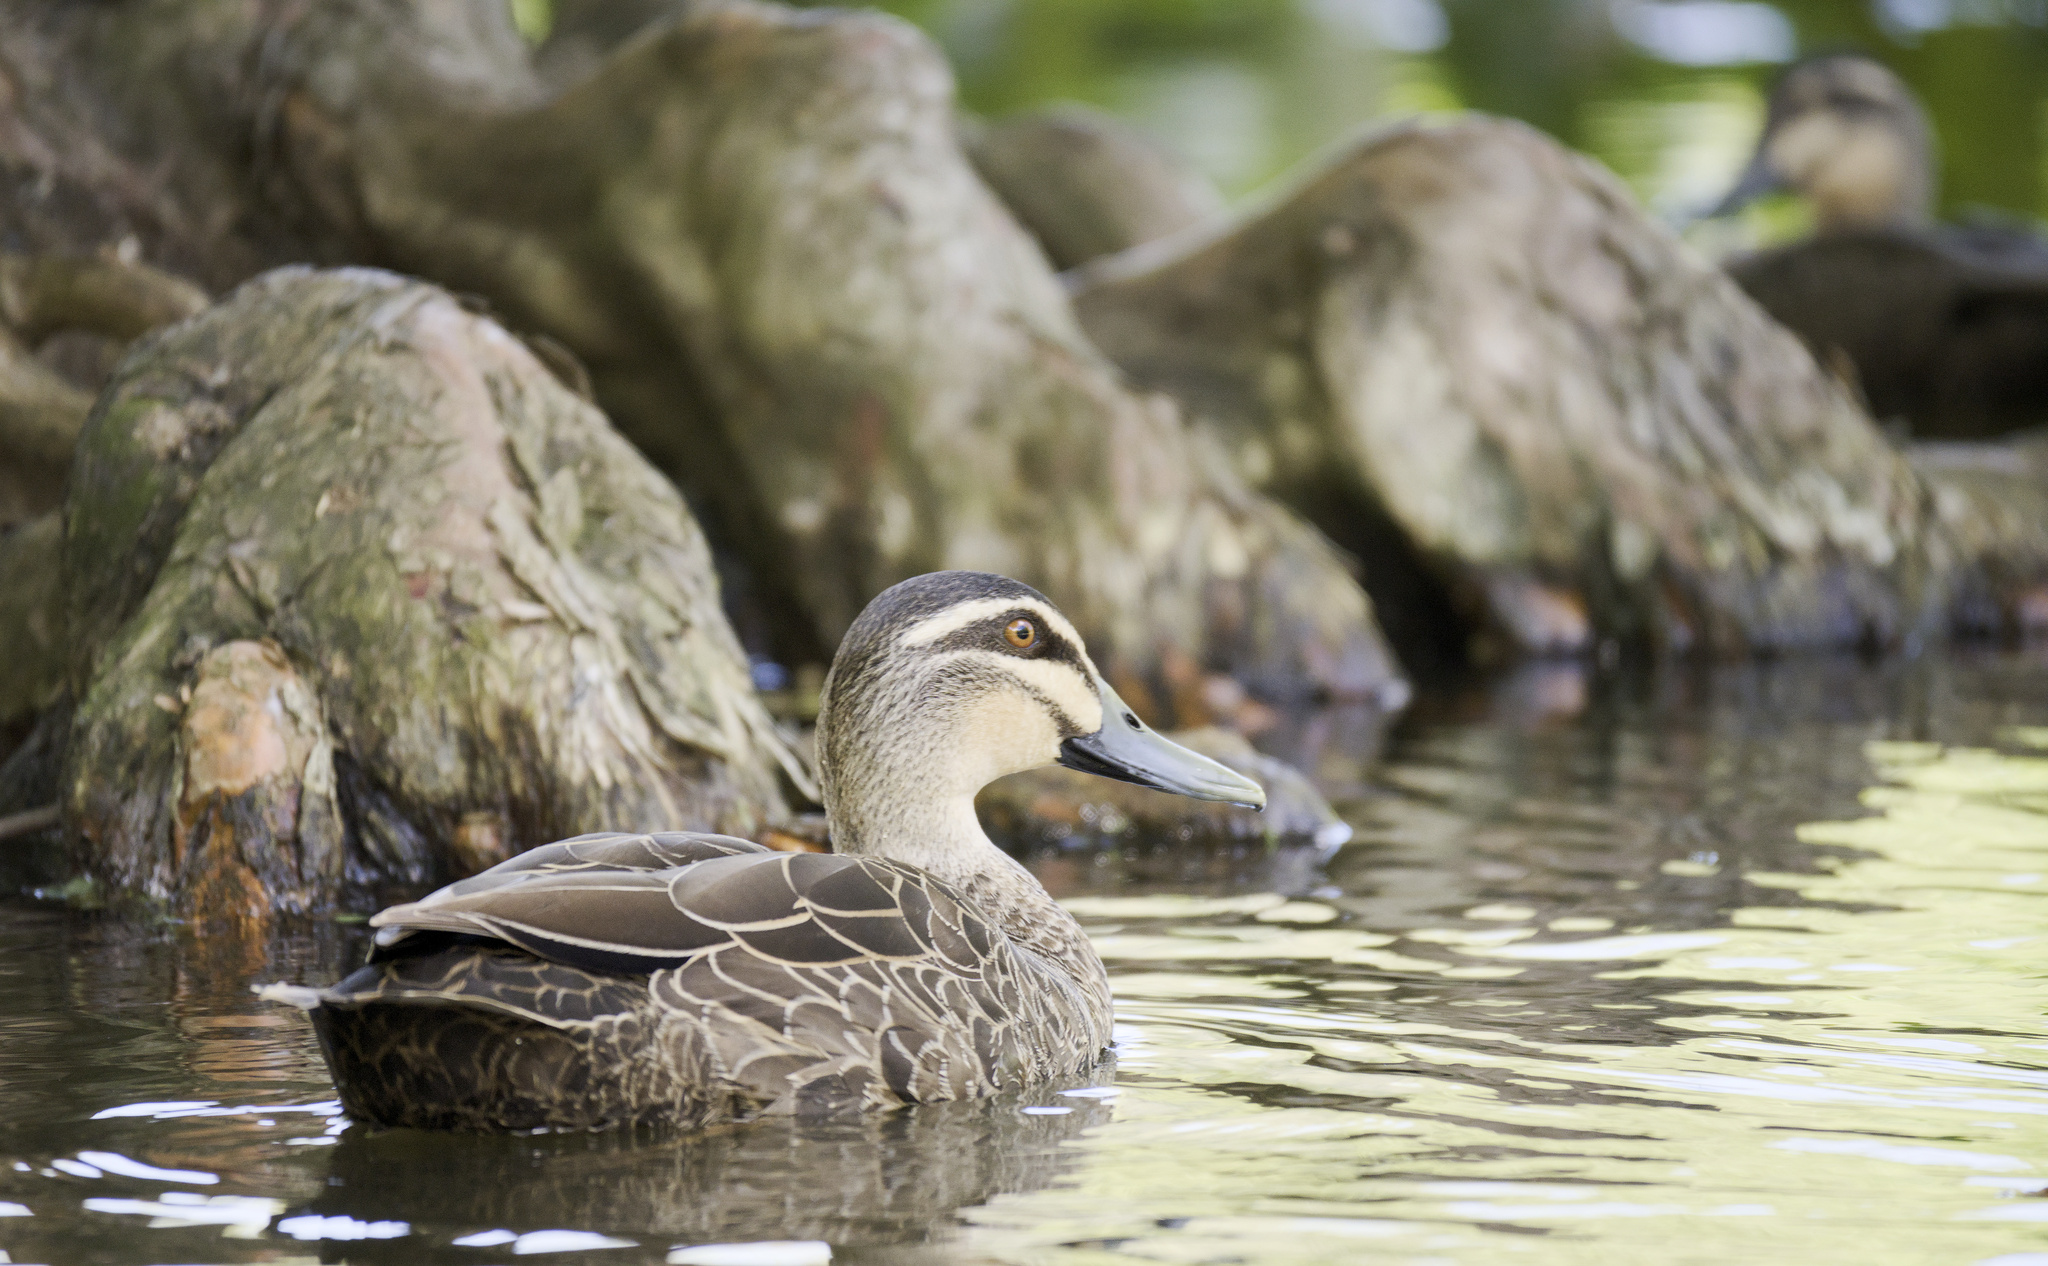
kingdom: Animalia
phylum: Chordata
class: Aves
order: Anseriformes
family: Anatidae
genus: Anas
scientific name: Anas superciliosa
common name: Pacific black duck
